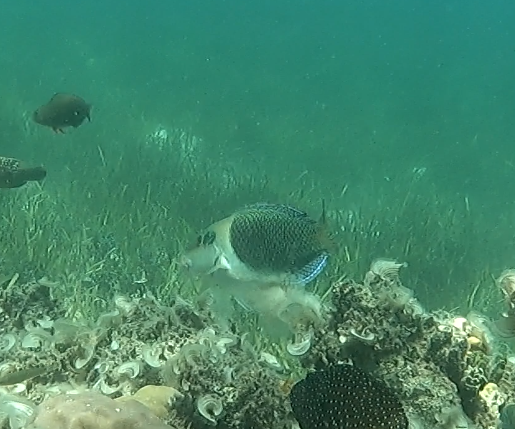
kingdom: Animalia
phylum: Chordata
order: Perciformes
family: Labridae
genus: Hemigymnus
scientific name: Hemigymnus melapterus
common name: Blackeye thicklip
